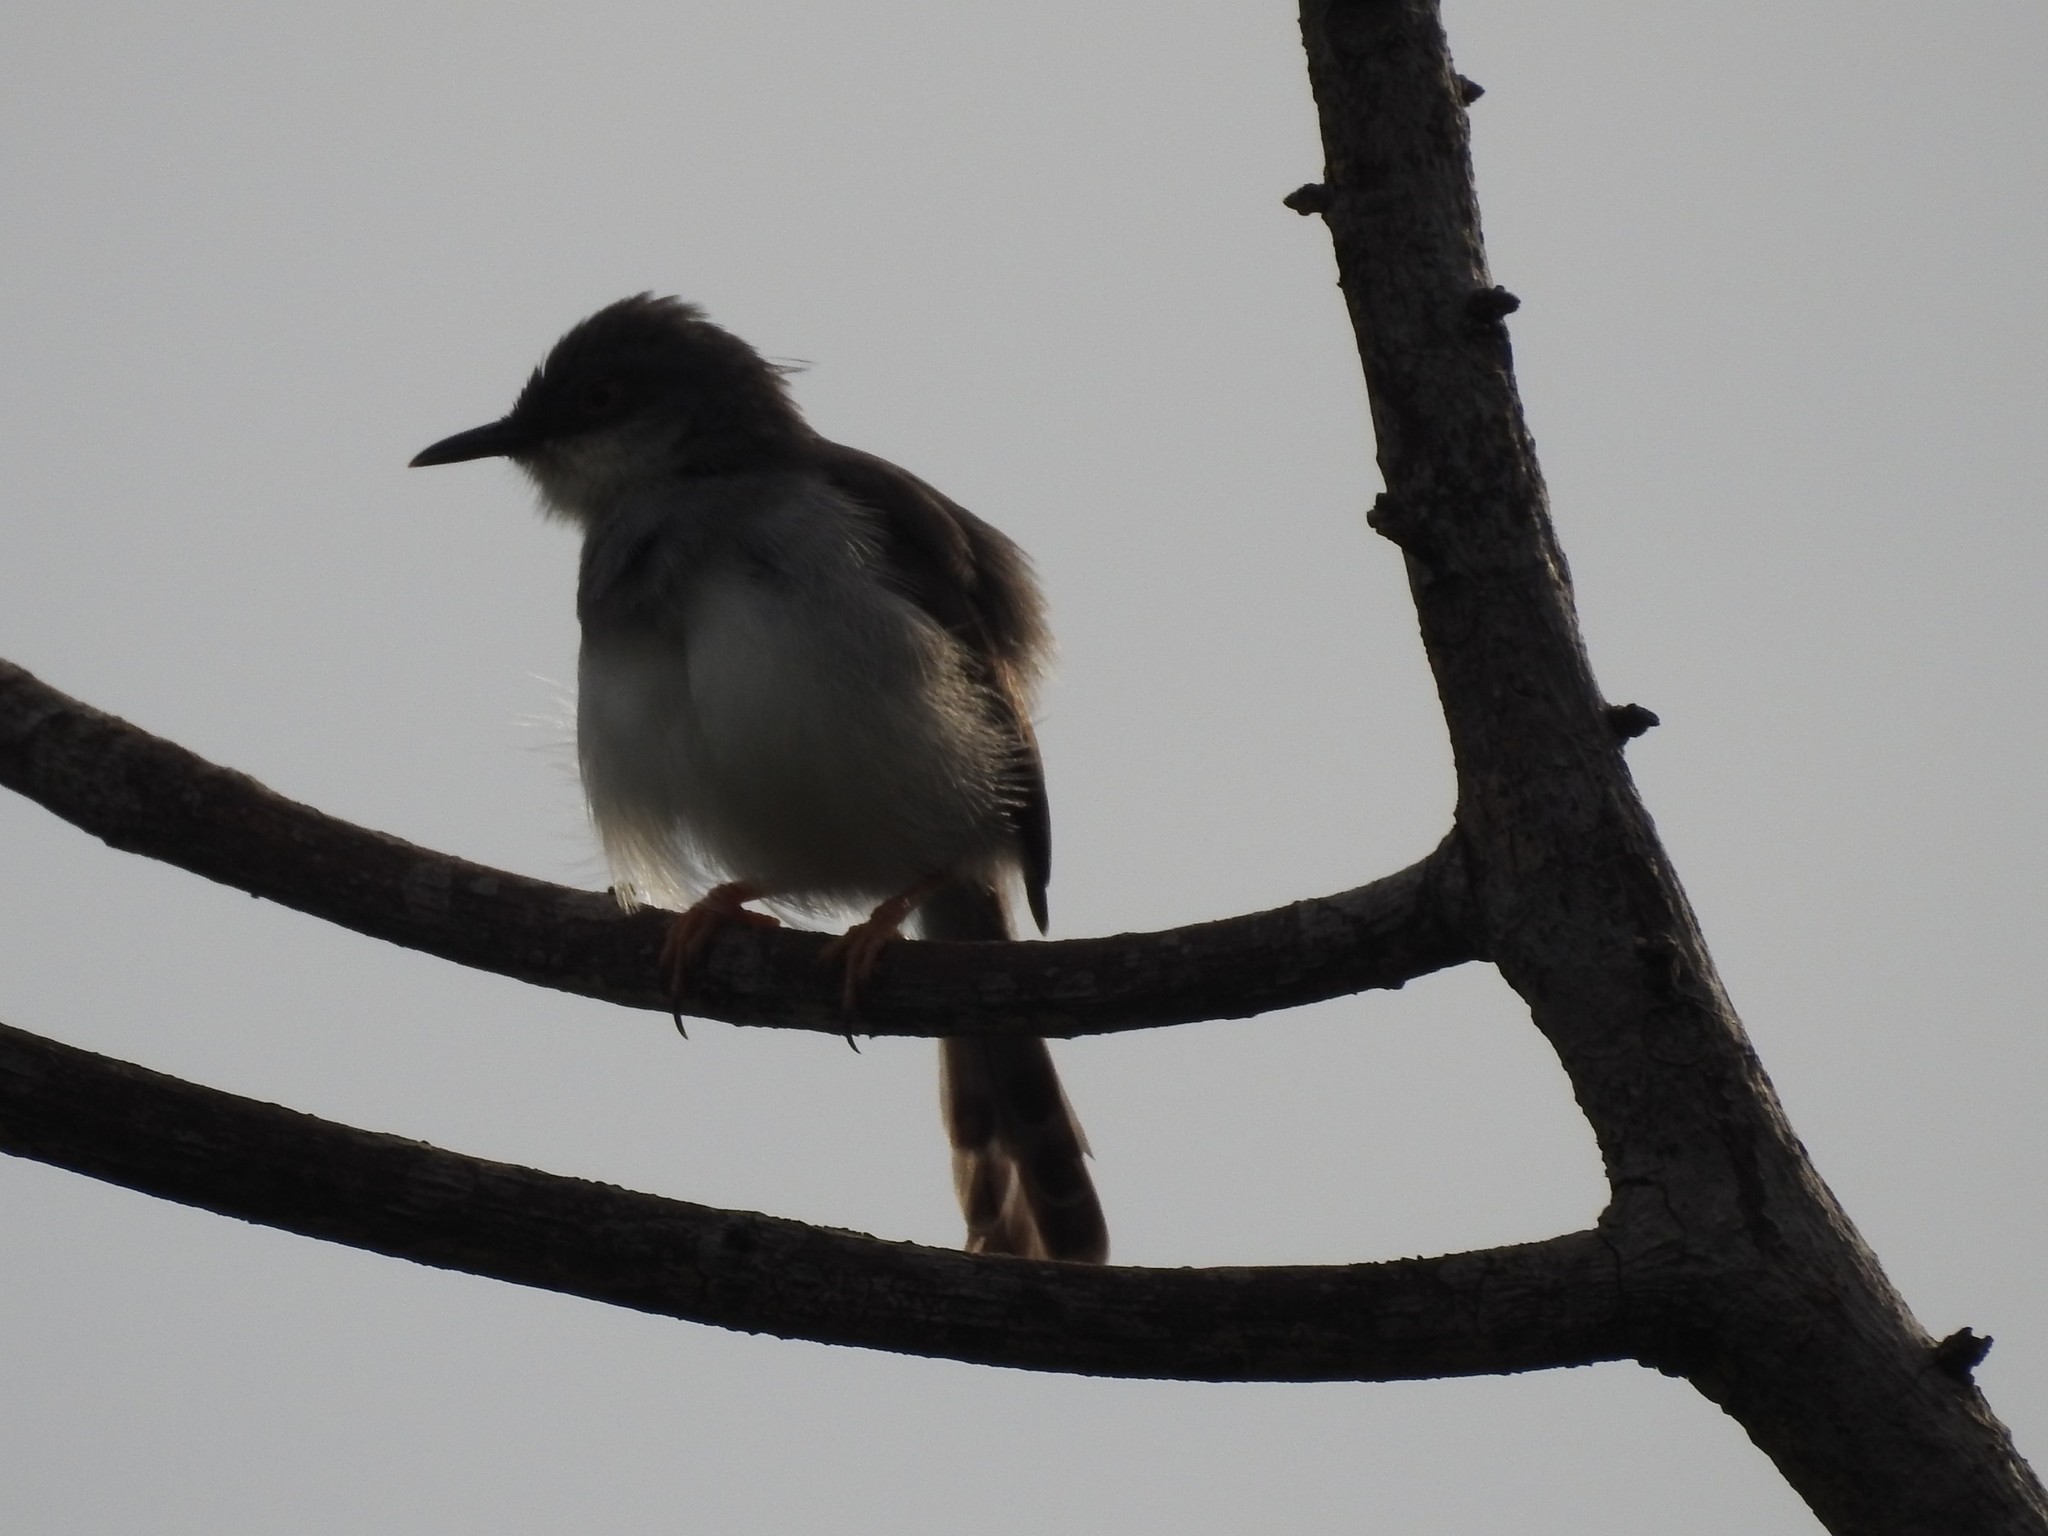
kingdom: Animalia
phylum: Chordata
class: Aves
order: Passeriformes
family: Cisticolidae
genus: Prinia
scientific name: Prinia hodgsonii
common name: Grey-breasted prinia
